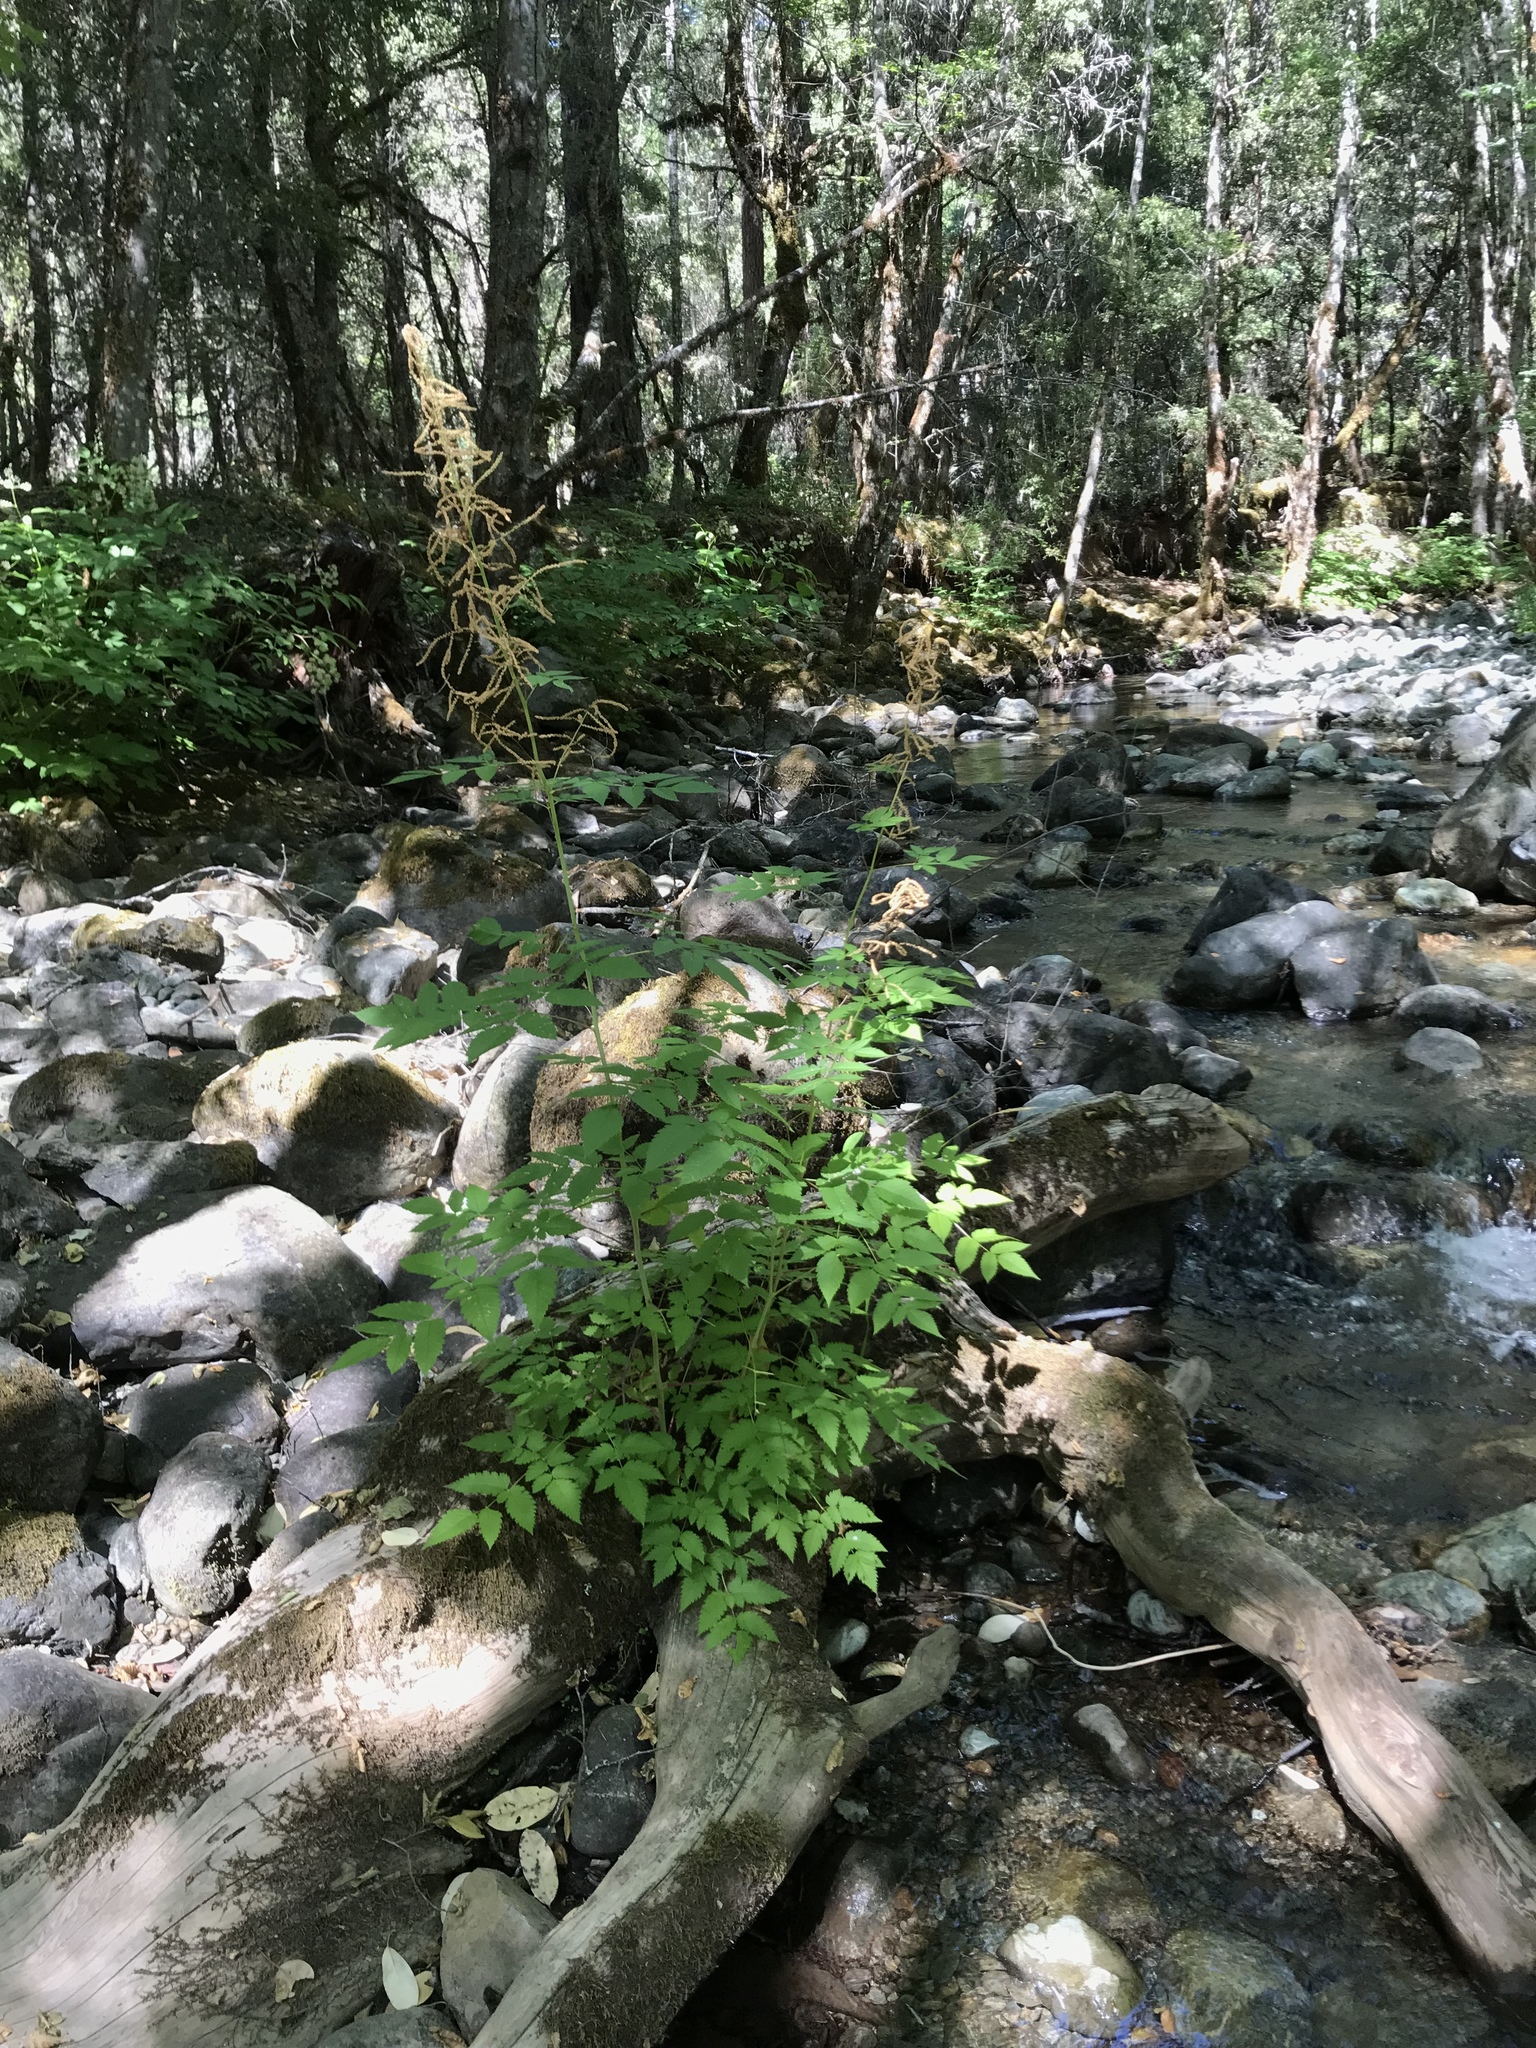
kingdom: Plantae
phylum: Tracheophyta
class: Magnoliopsida
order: Rosales
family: Rosaceae
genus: Aruncus
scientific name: Aruncus dioicus
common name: Buck's-beard
